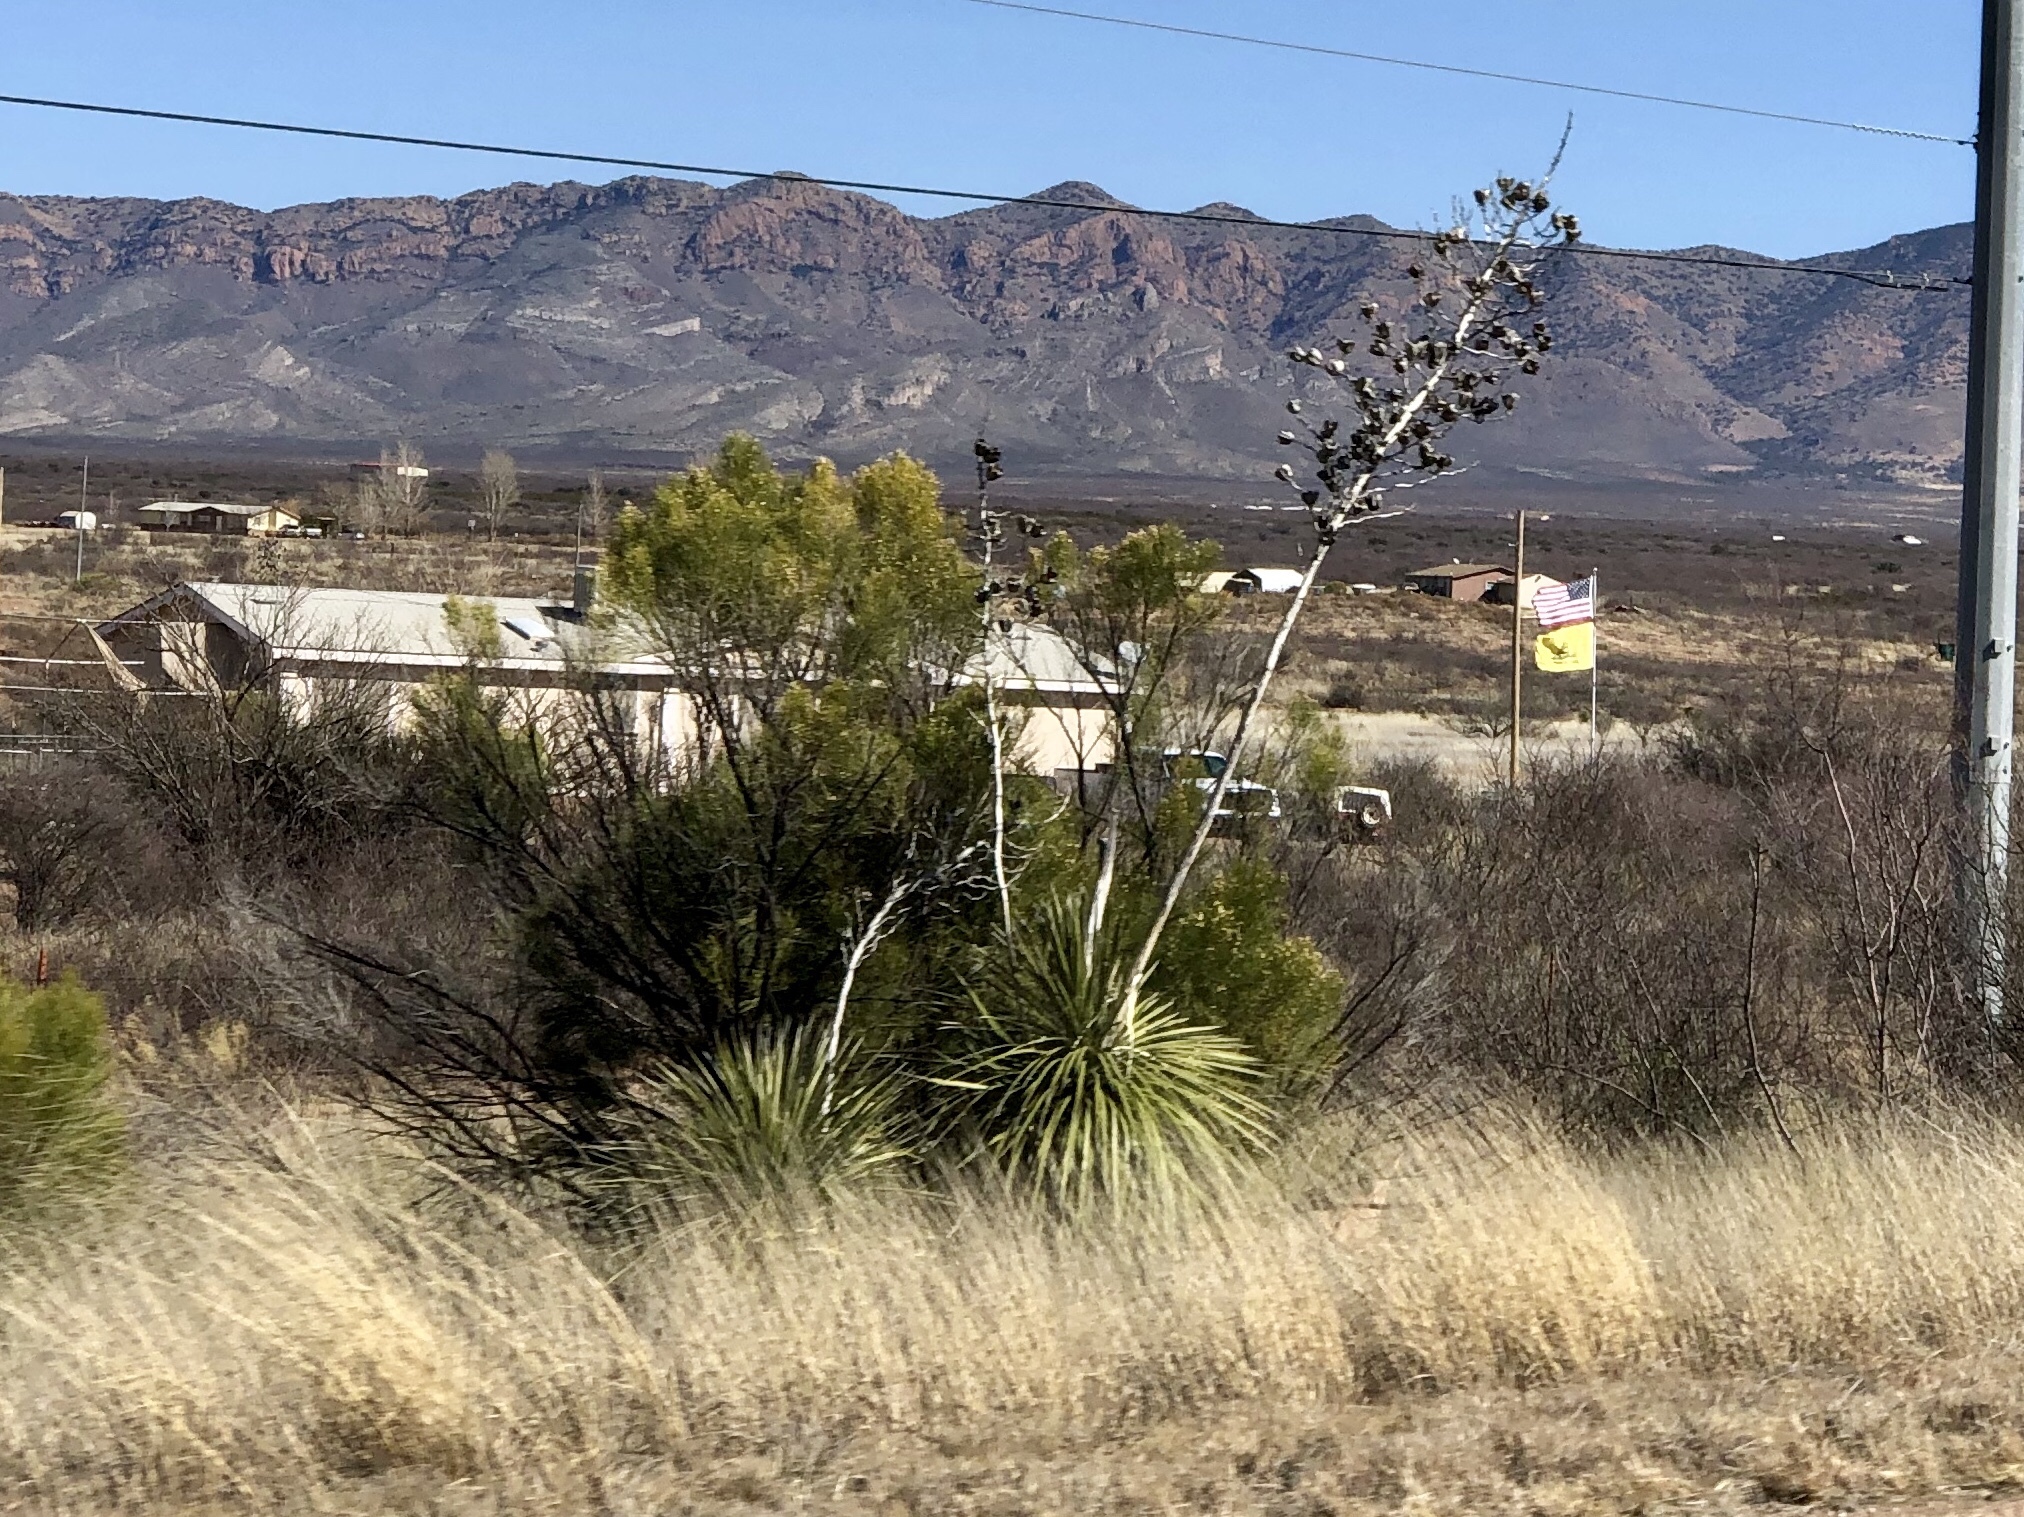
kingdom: Plantae
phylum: Tracheophyta
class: Liliopsida
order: Asparagales
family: Asparagaceae
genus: Yucca
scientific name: Yucca elata
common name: Palmella
